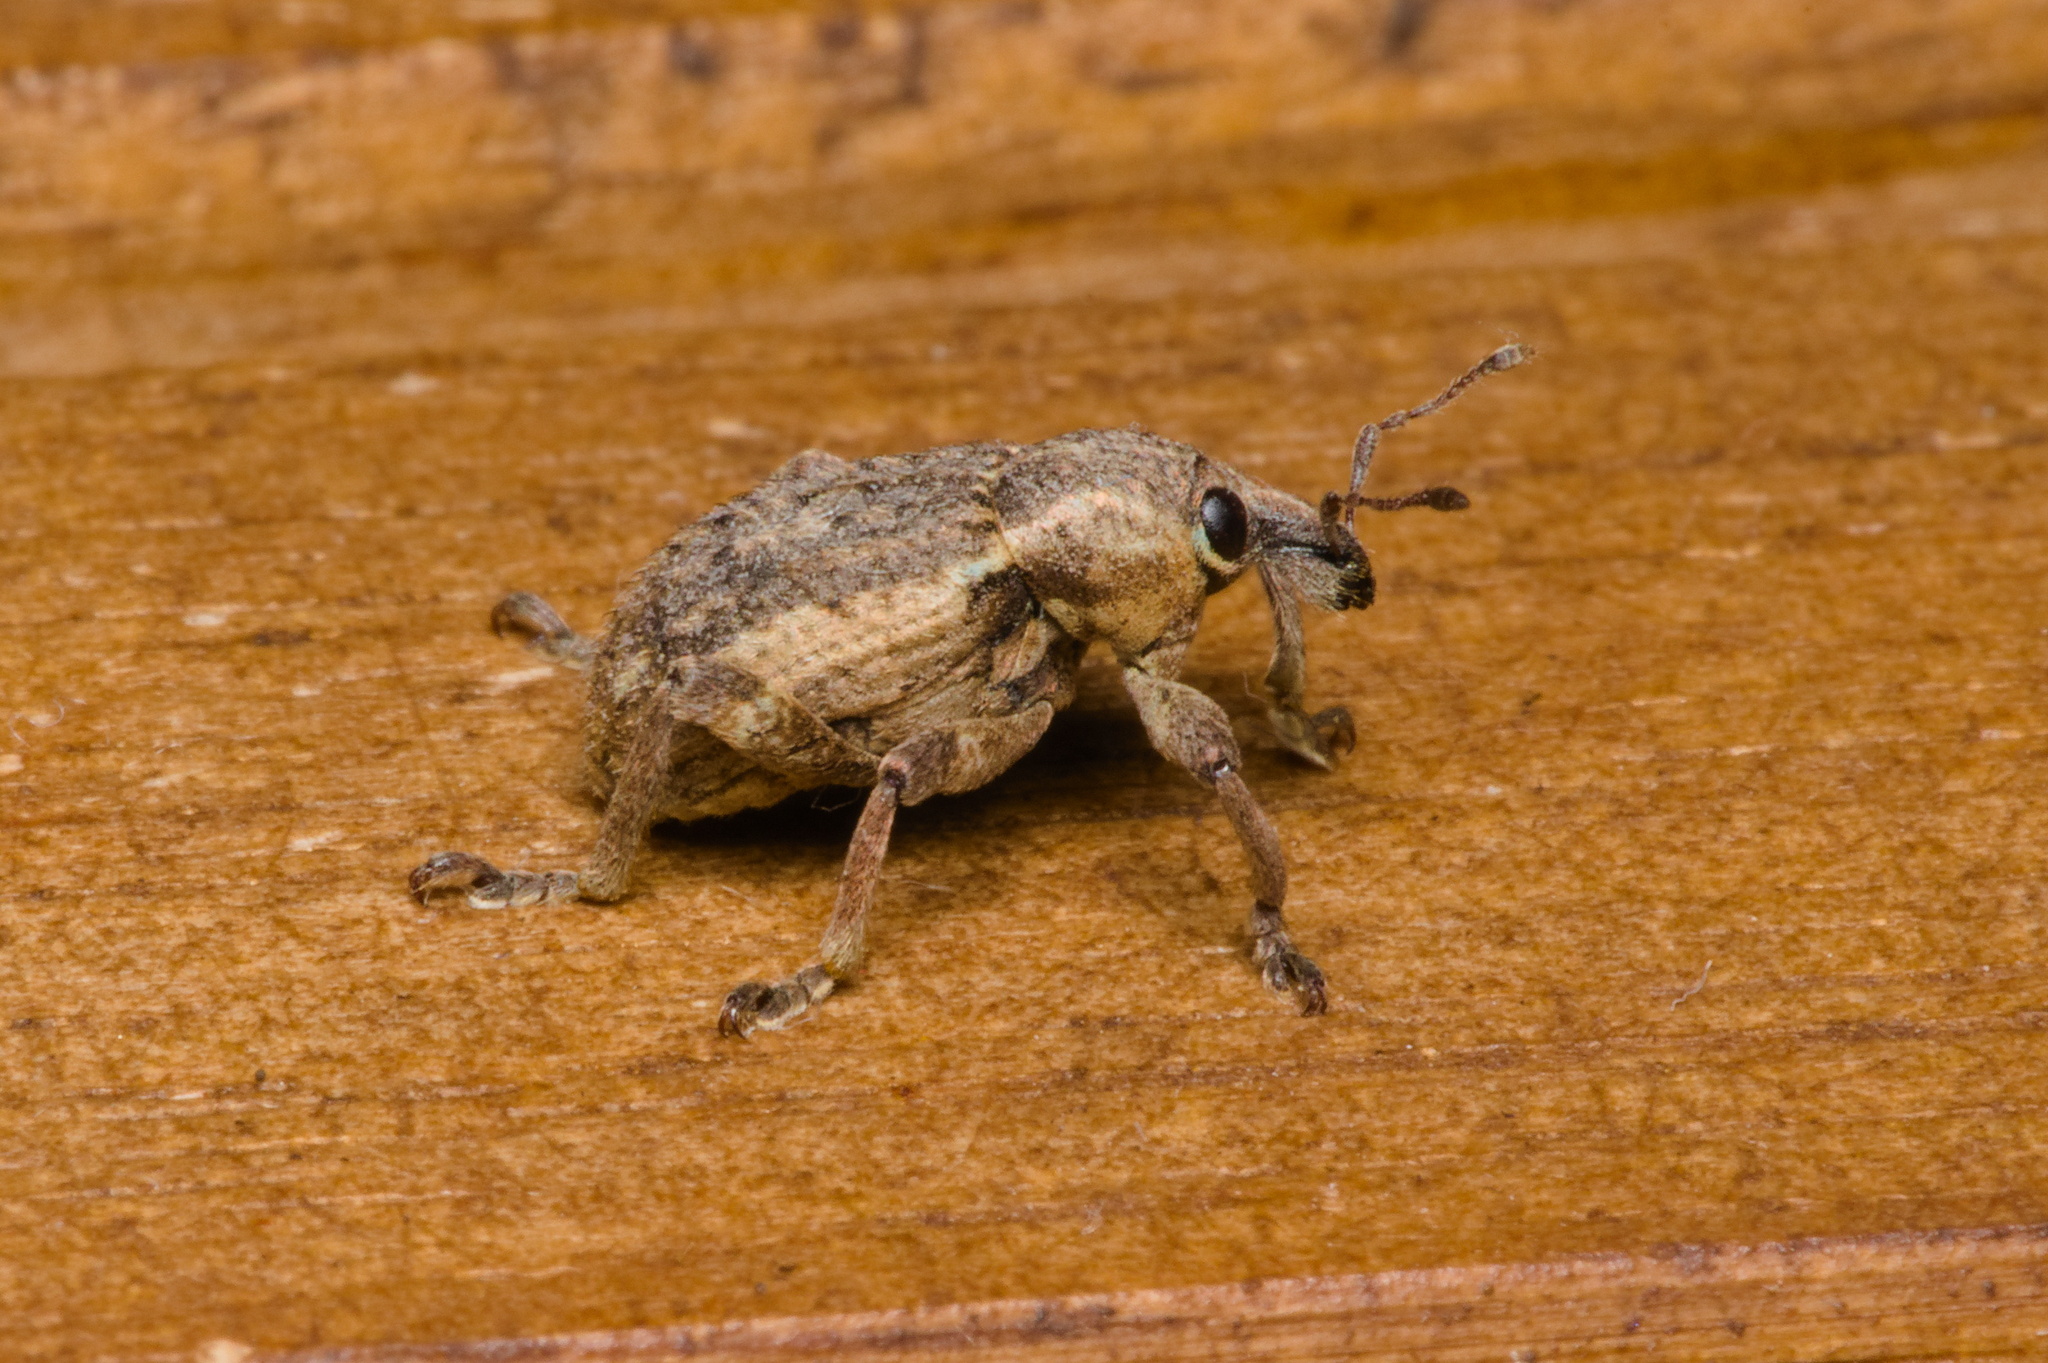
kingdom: Animalia
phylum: Arthropoda
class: Insecta
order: Coleoptera
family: Curculionidae
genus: Brachypera
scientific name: Brachypera zoilus
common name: Clover leaf weevil
